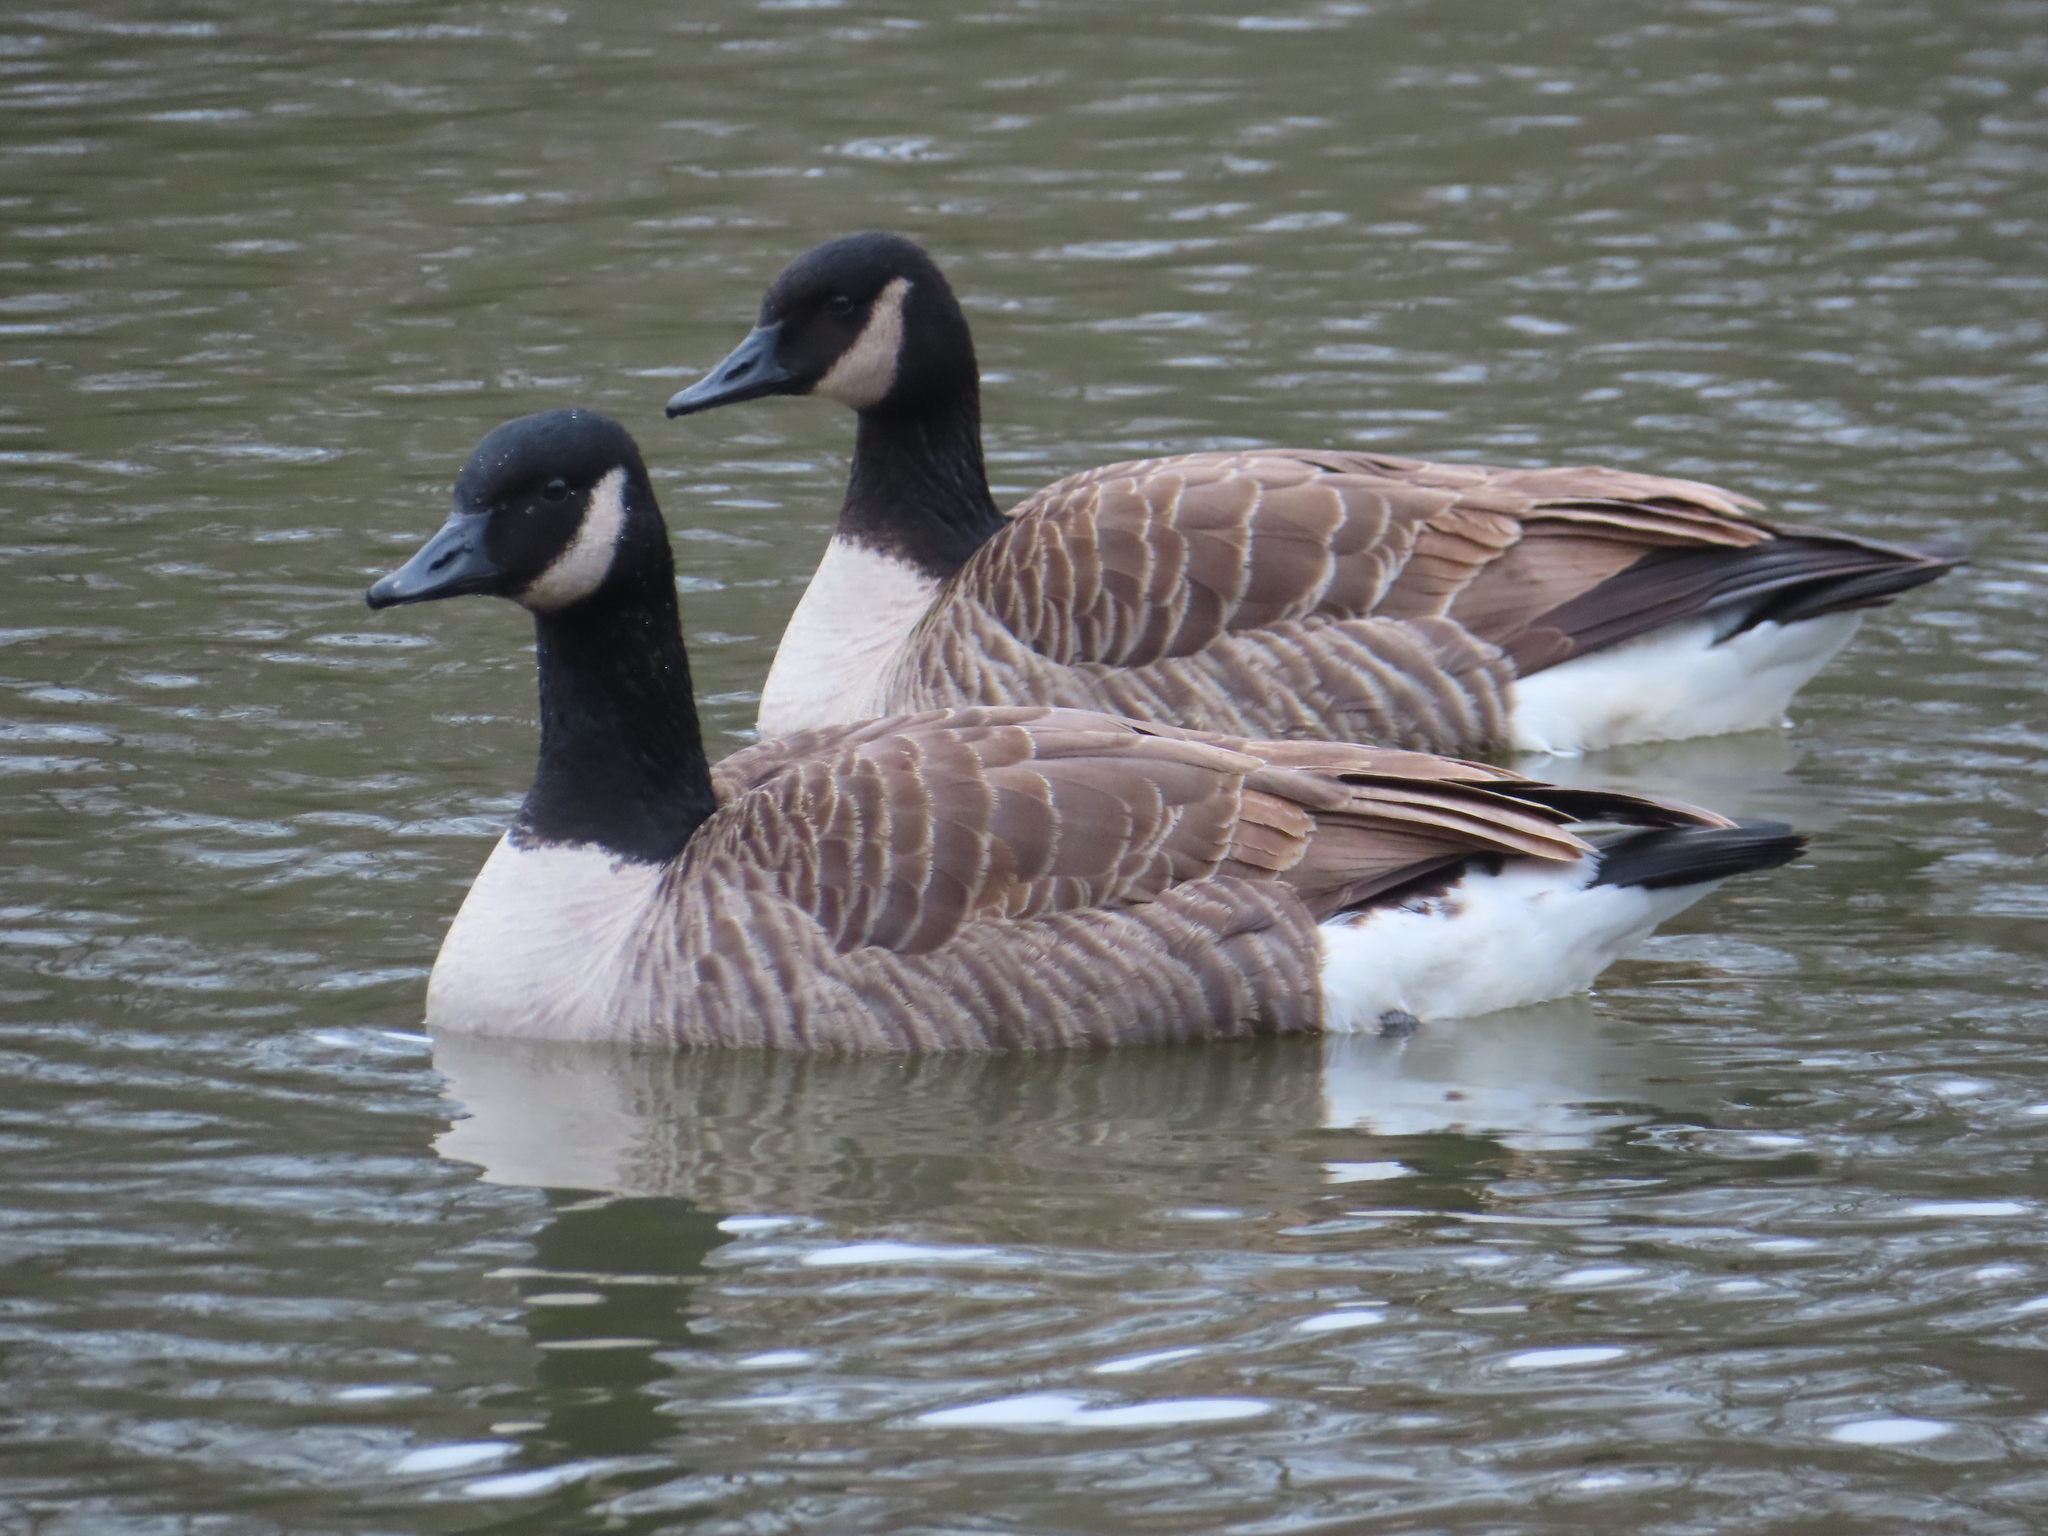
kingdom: Animalia
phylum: Chordata
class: Aves
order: Anseriformes
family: Anatidae
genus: Branta
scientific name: Branta canadensis
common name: Canada goose
